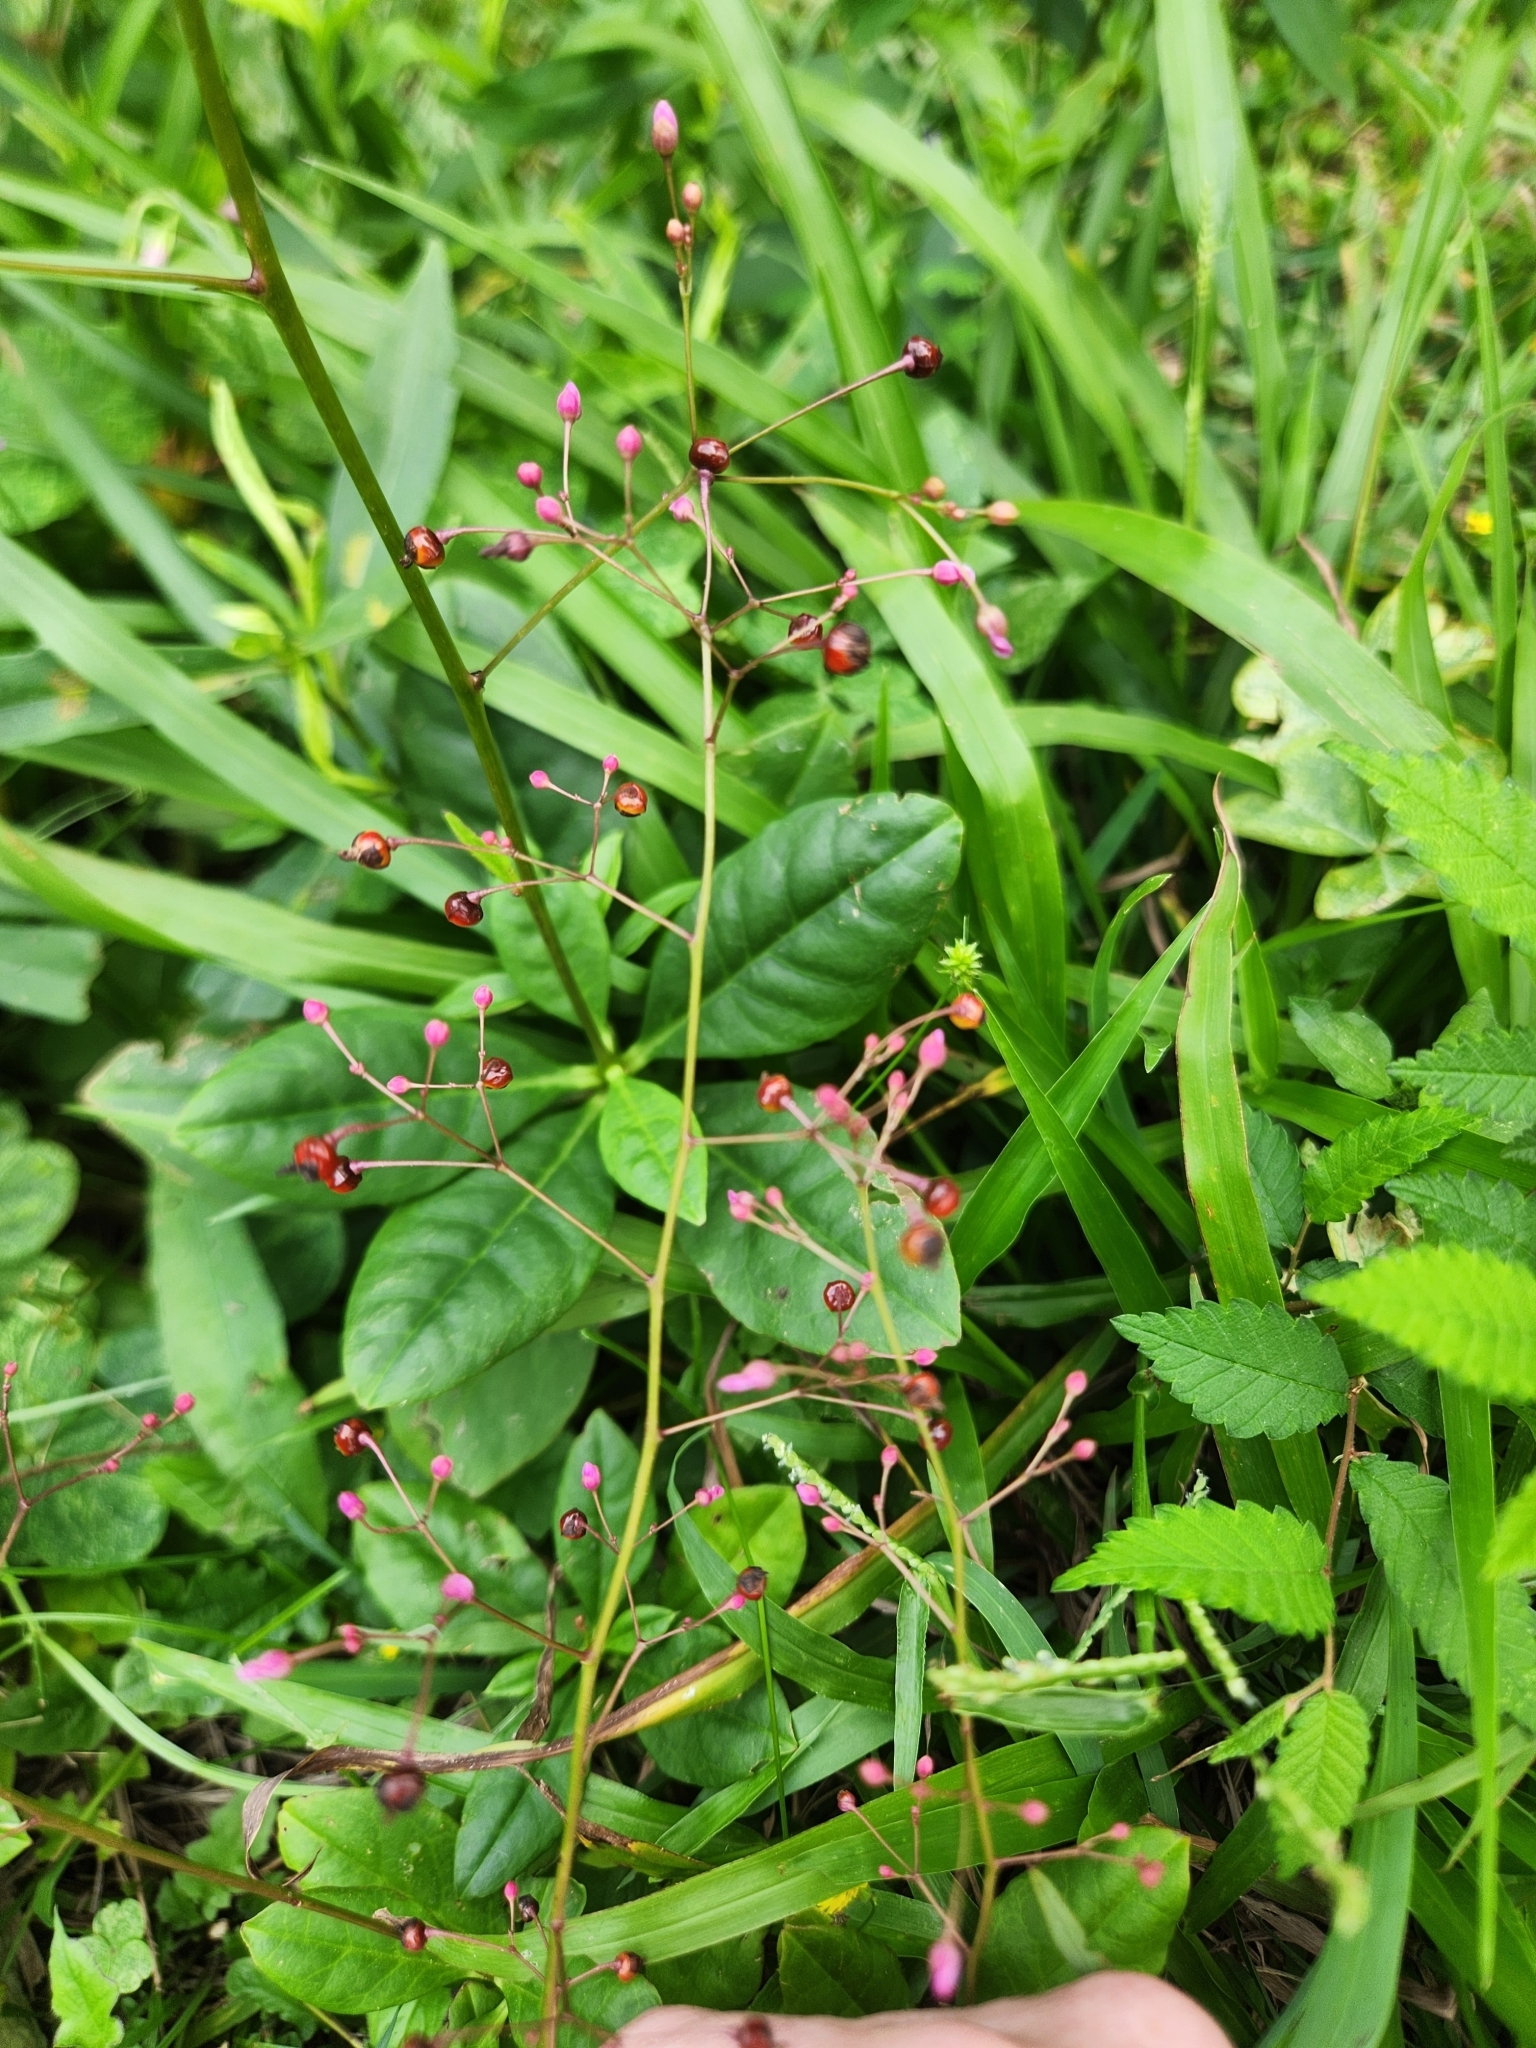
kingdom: Plantae
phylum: Tracheophyta
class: Magnoliopsida
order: Caryophyllales
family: Talinaceae
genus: Talinum
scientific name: Talinum paniculatum
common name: Jewels of opar
